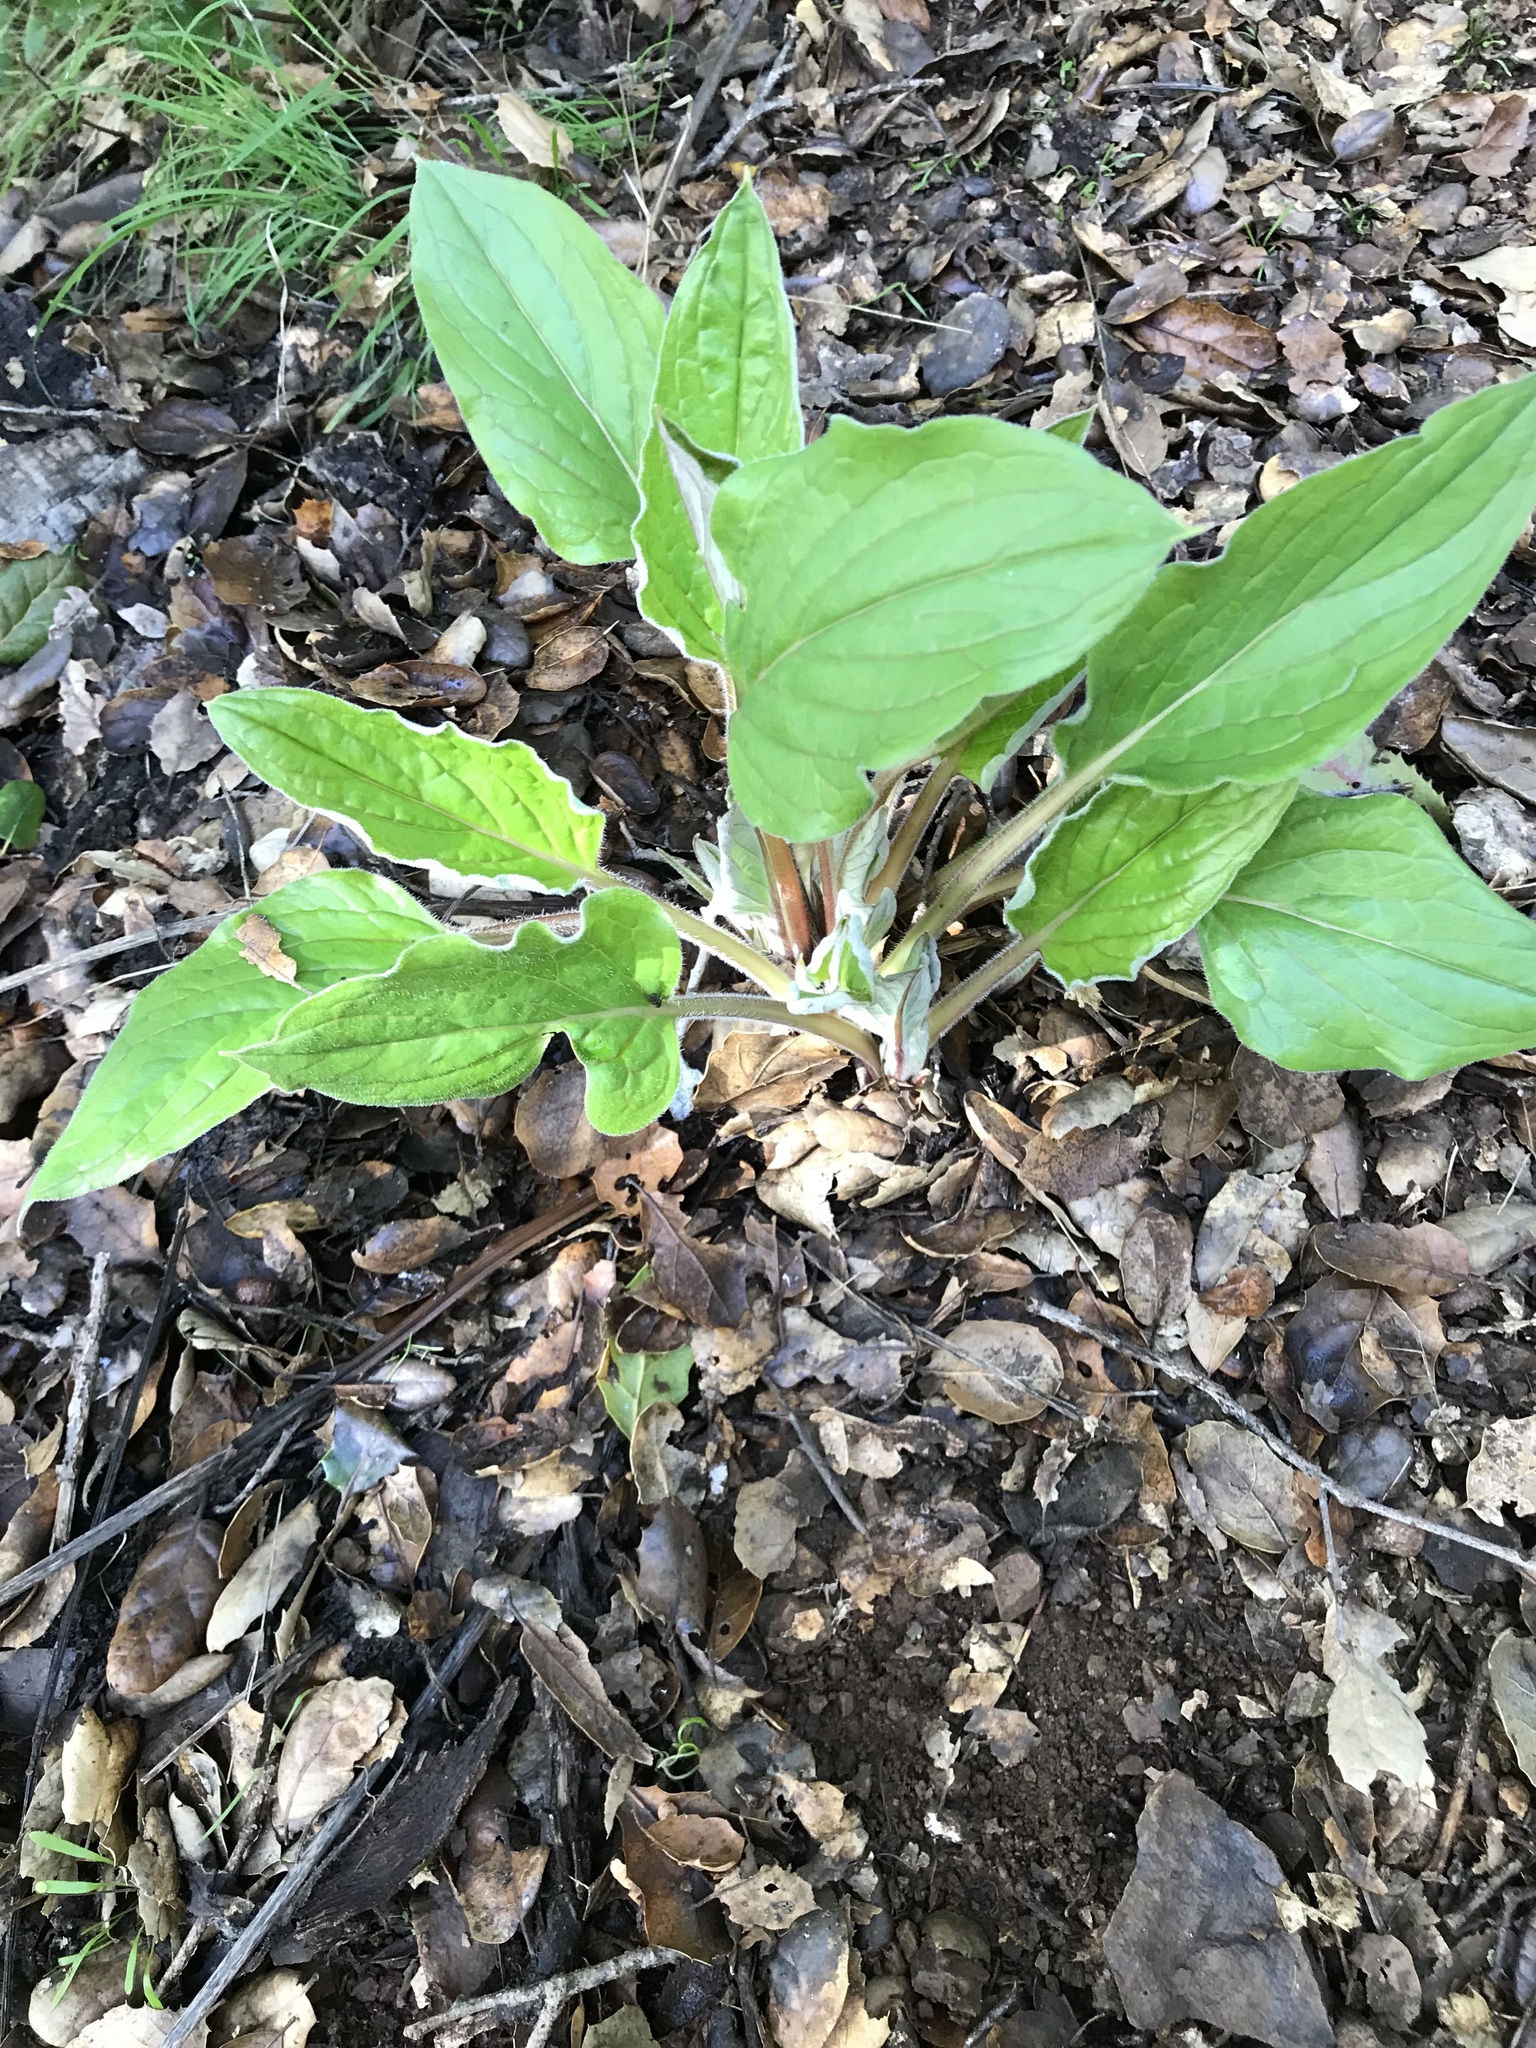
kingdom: Plantae
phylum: Tracheophyta
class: Magnoliopsida
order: Boraginales
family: Boraginaceae
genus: Adelinia
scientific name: Adelinia grande
